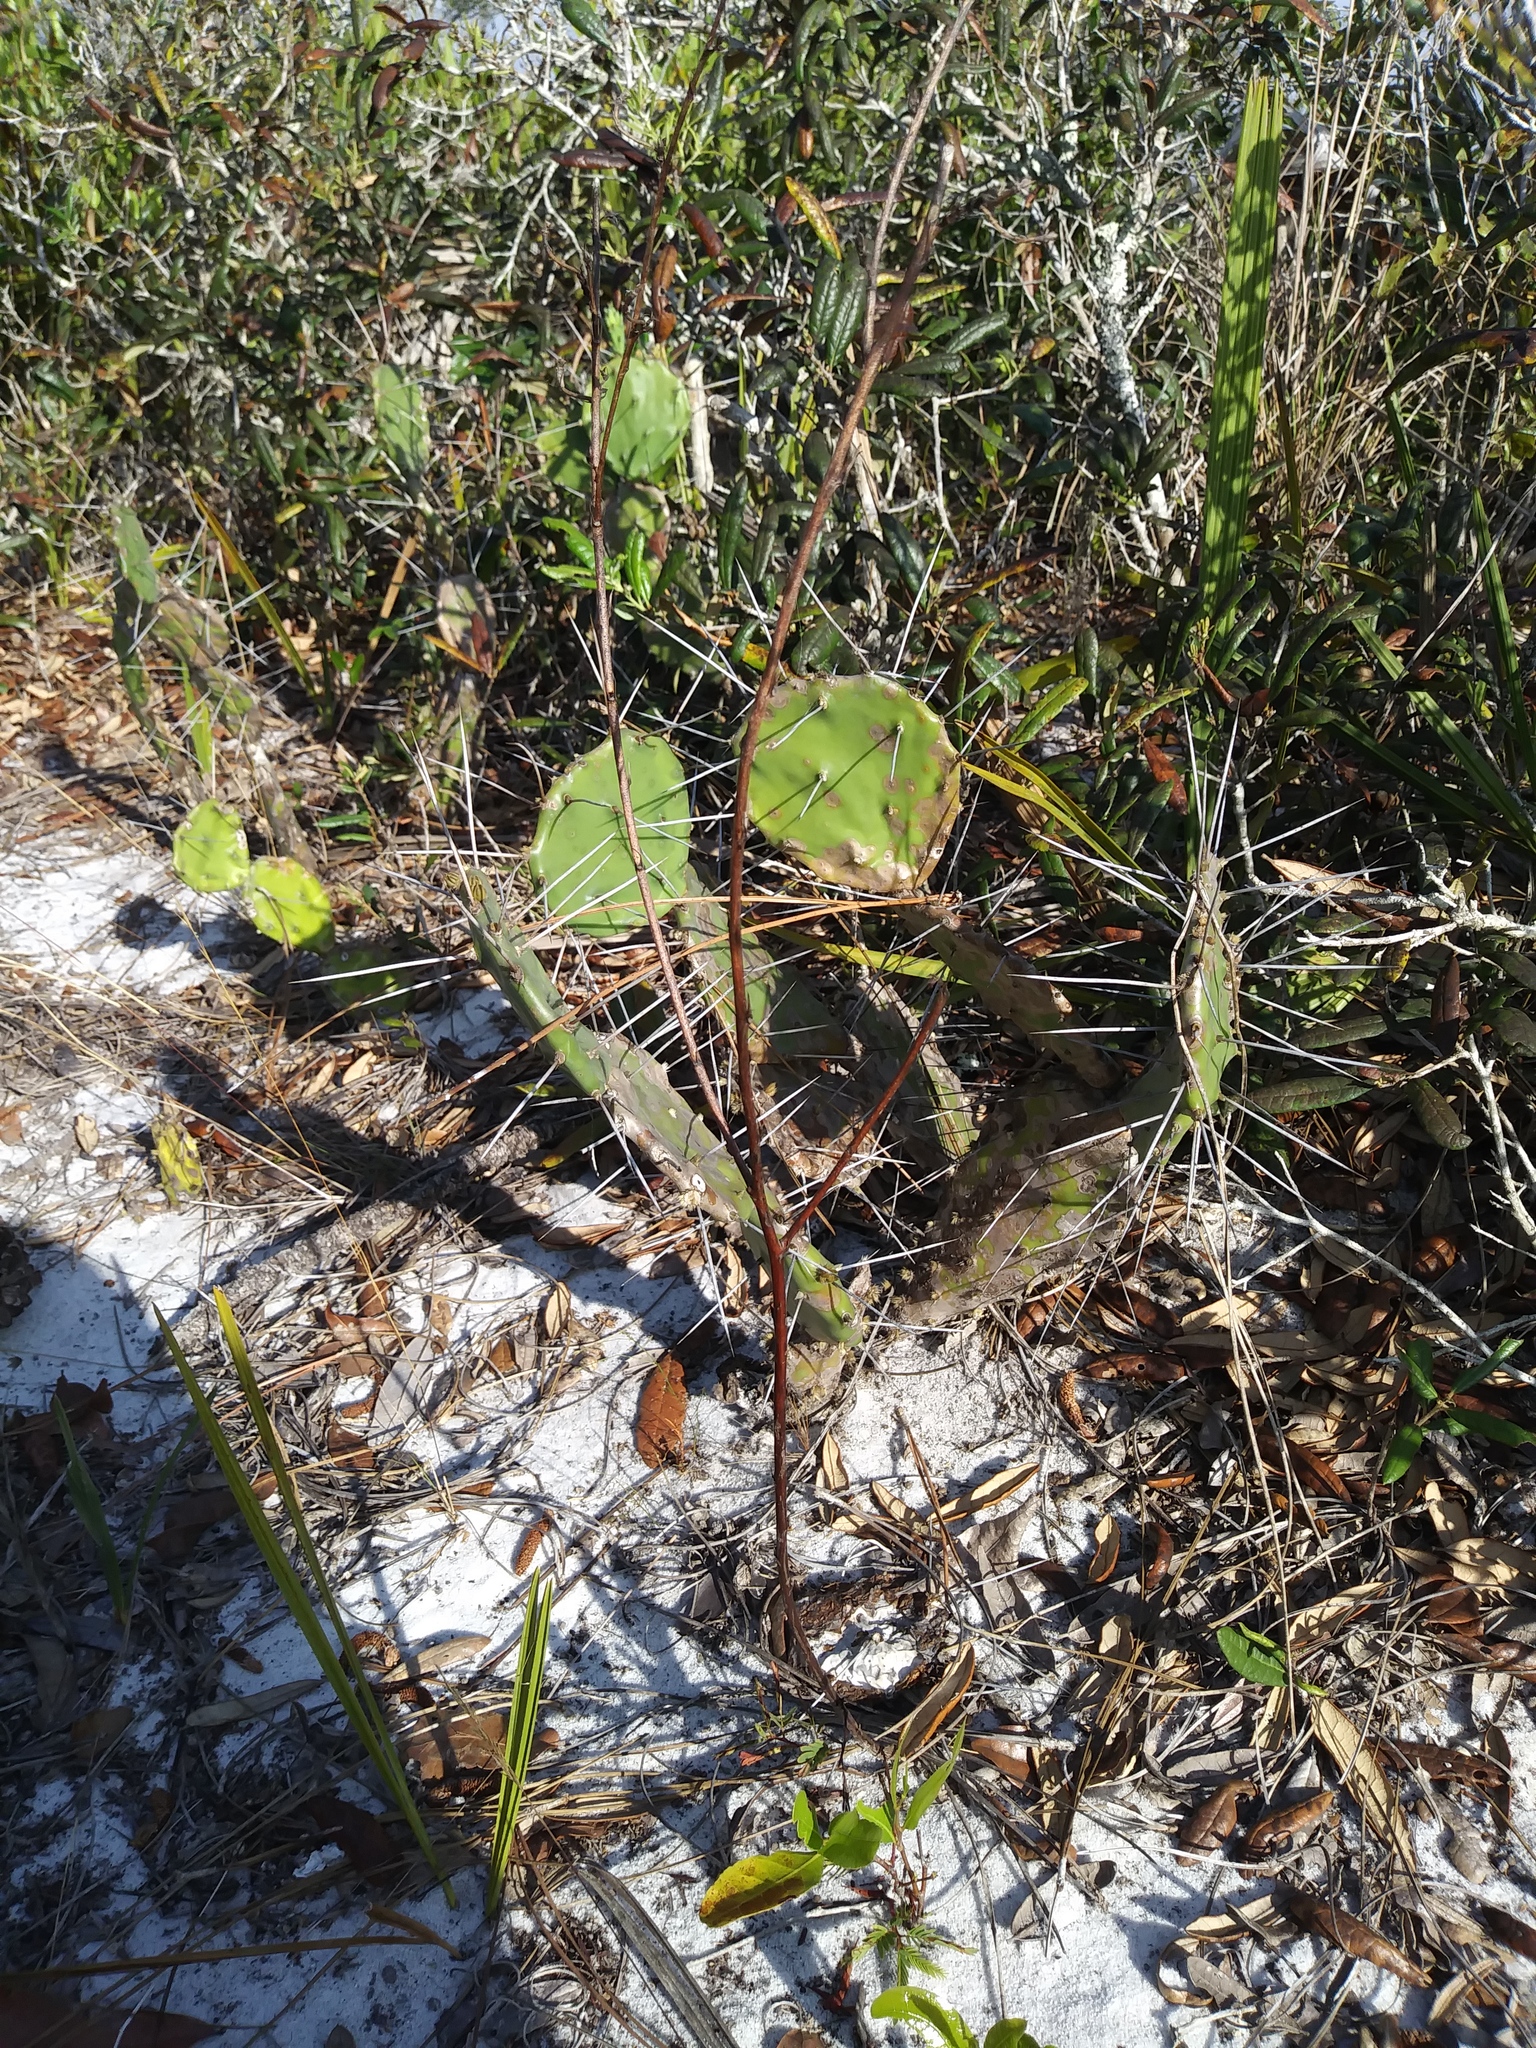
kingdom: Plantae
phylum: Tracheophyta
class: Magnoliopsida
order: Caryophyllales
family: Cactaceae
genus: Opuntia
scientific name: Opuntia austrina
